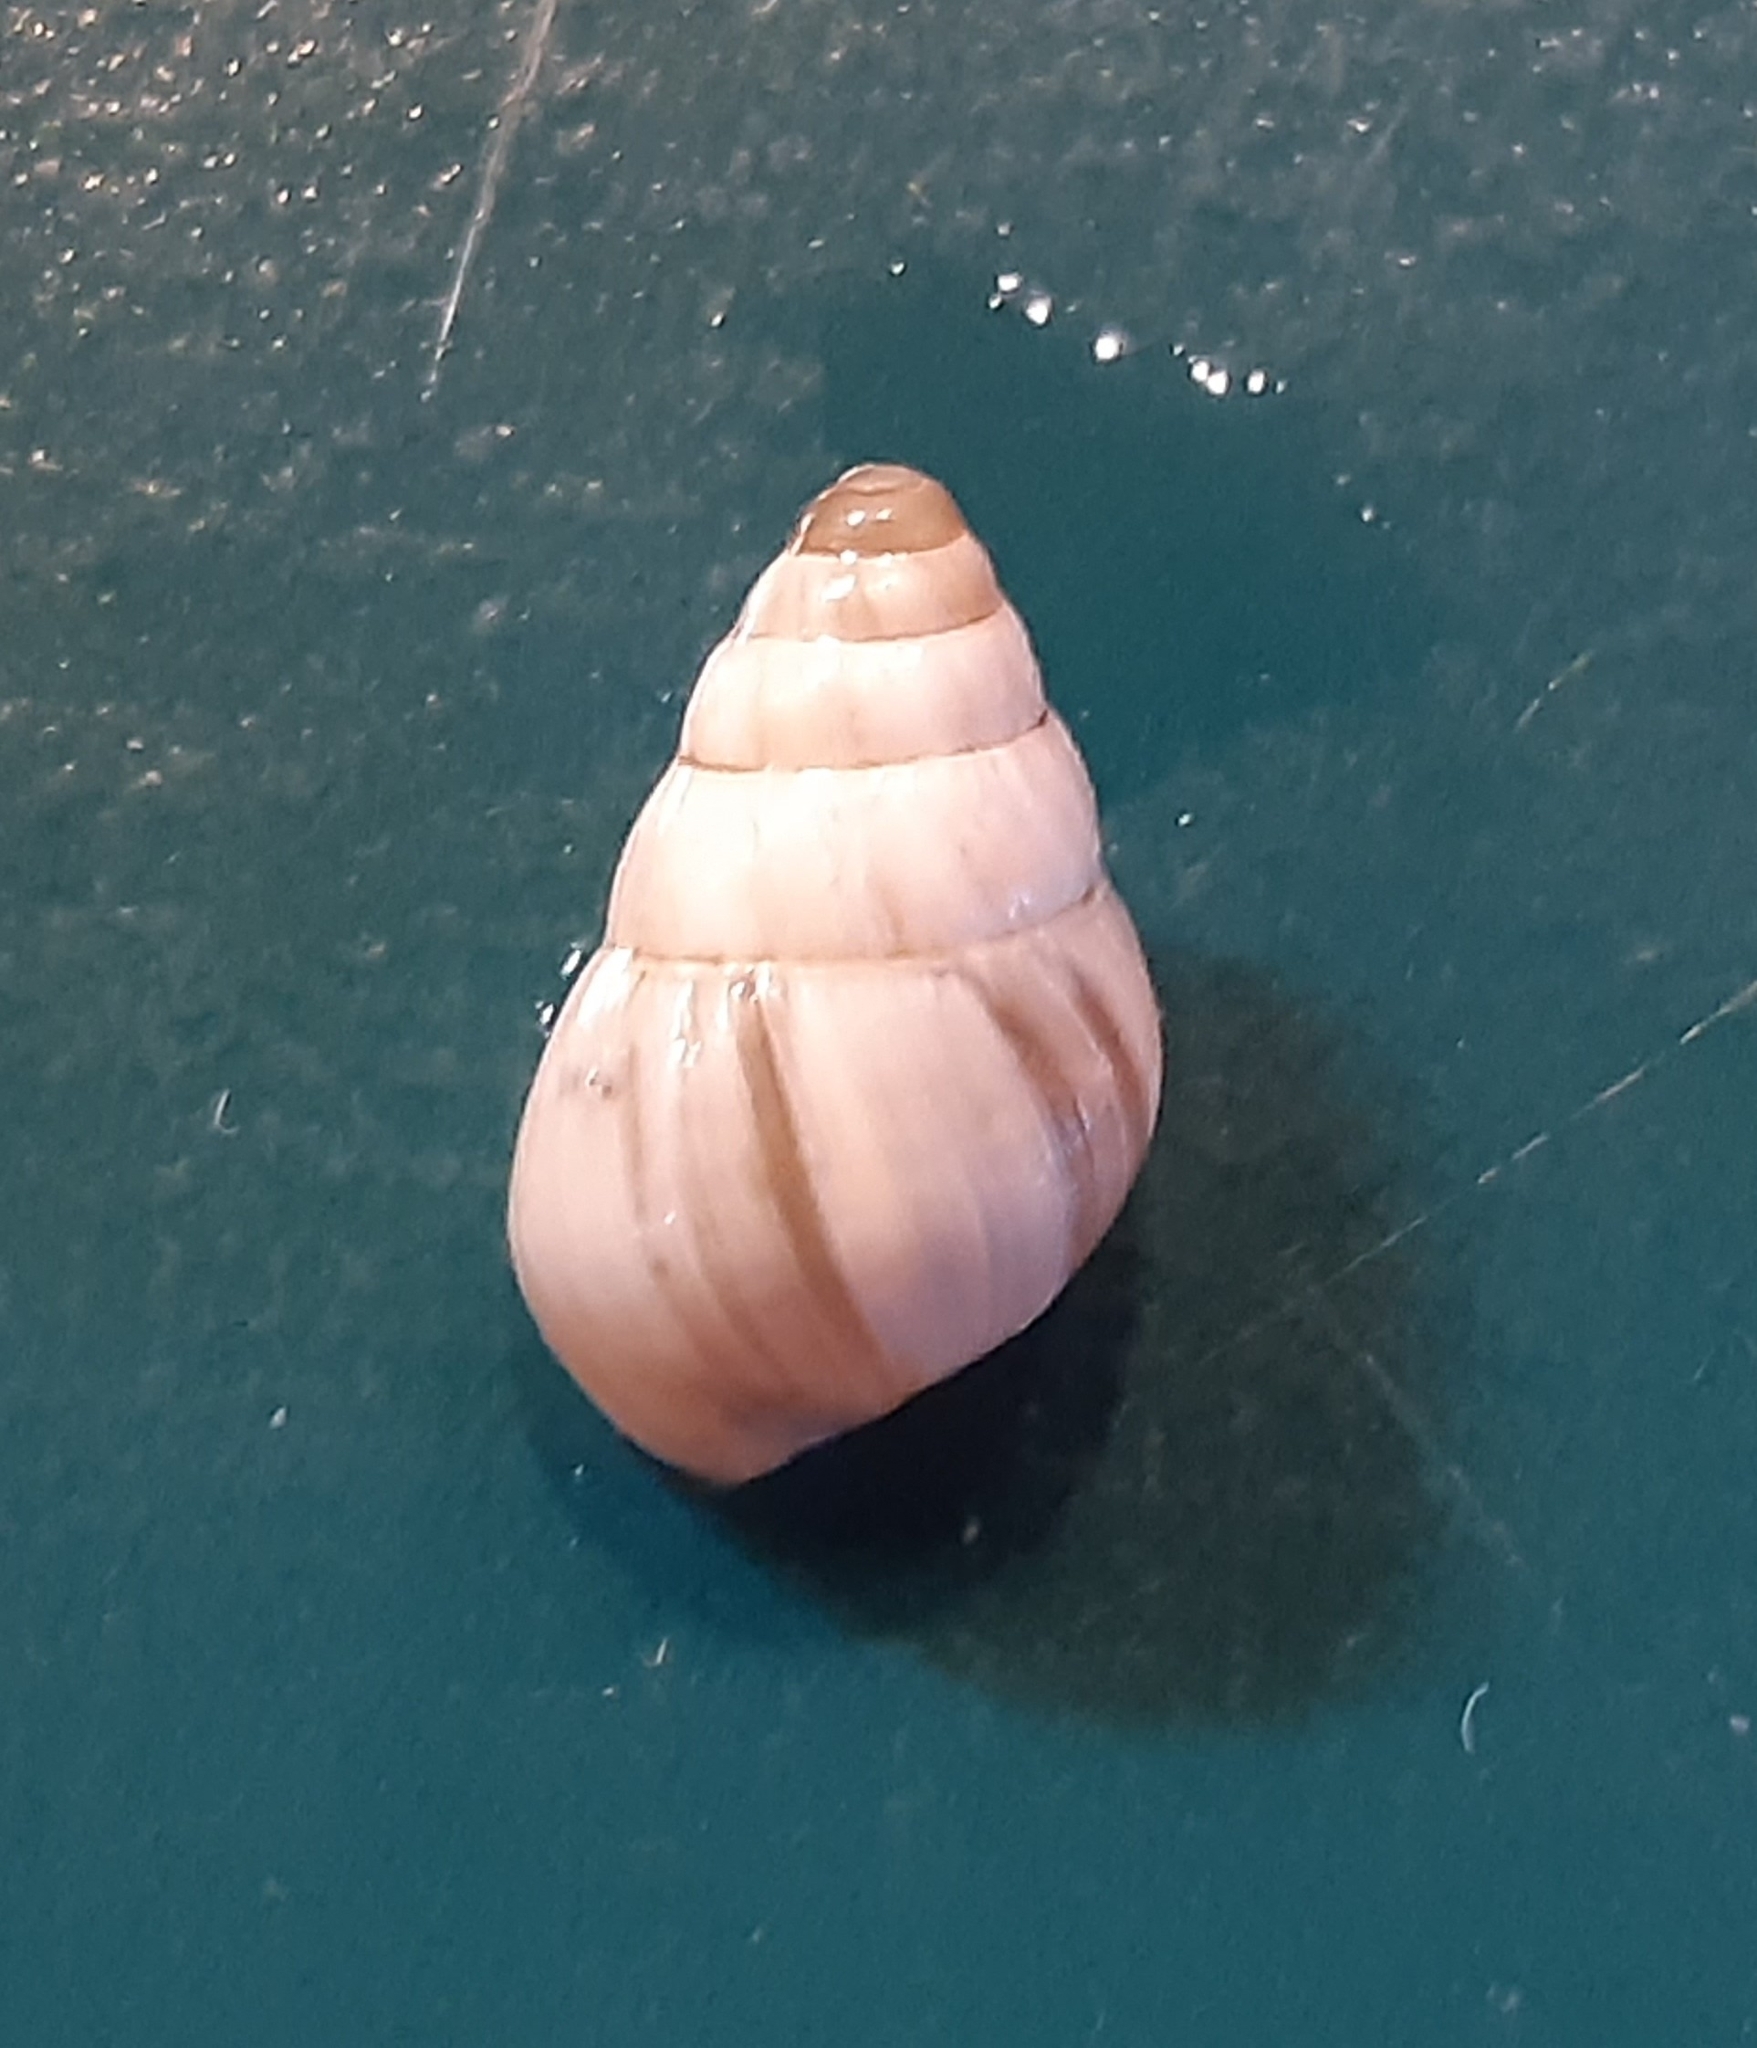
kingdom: Animalia
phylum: Mollusca
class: Gastropoda
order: Stylommatophora
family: Enidae
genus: Zebrina
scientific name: Zebrina detrita
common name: Large bulin
